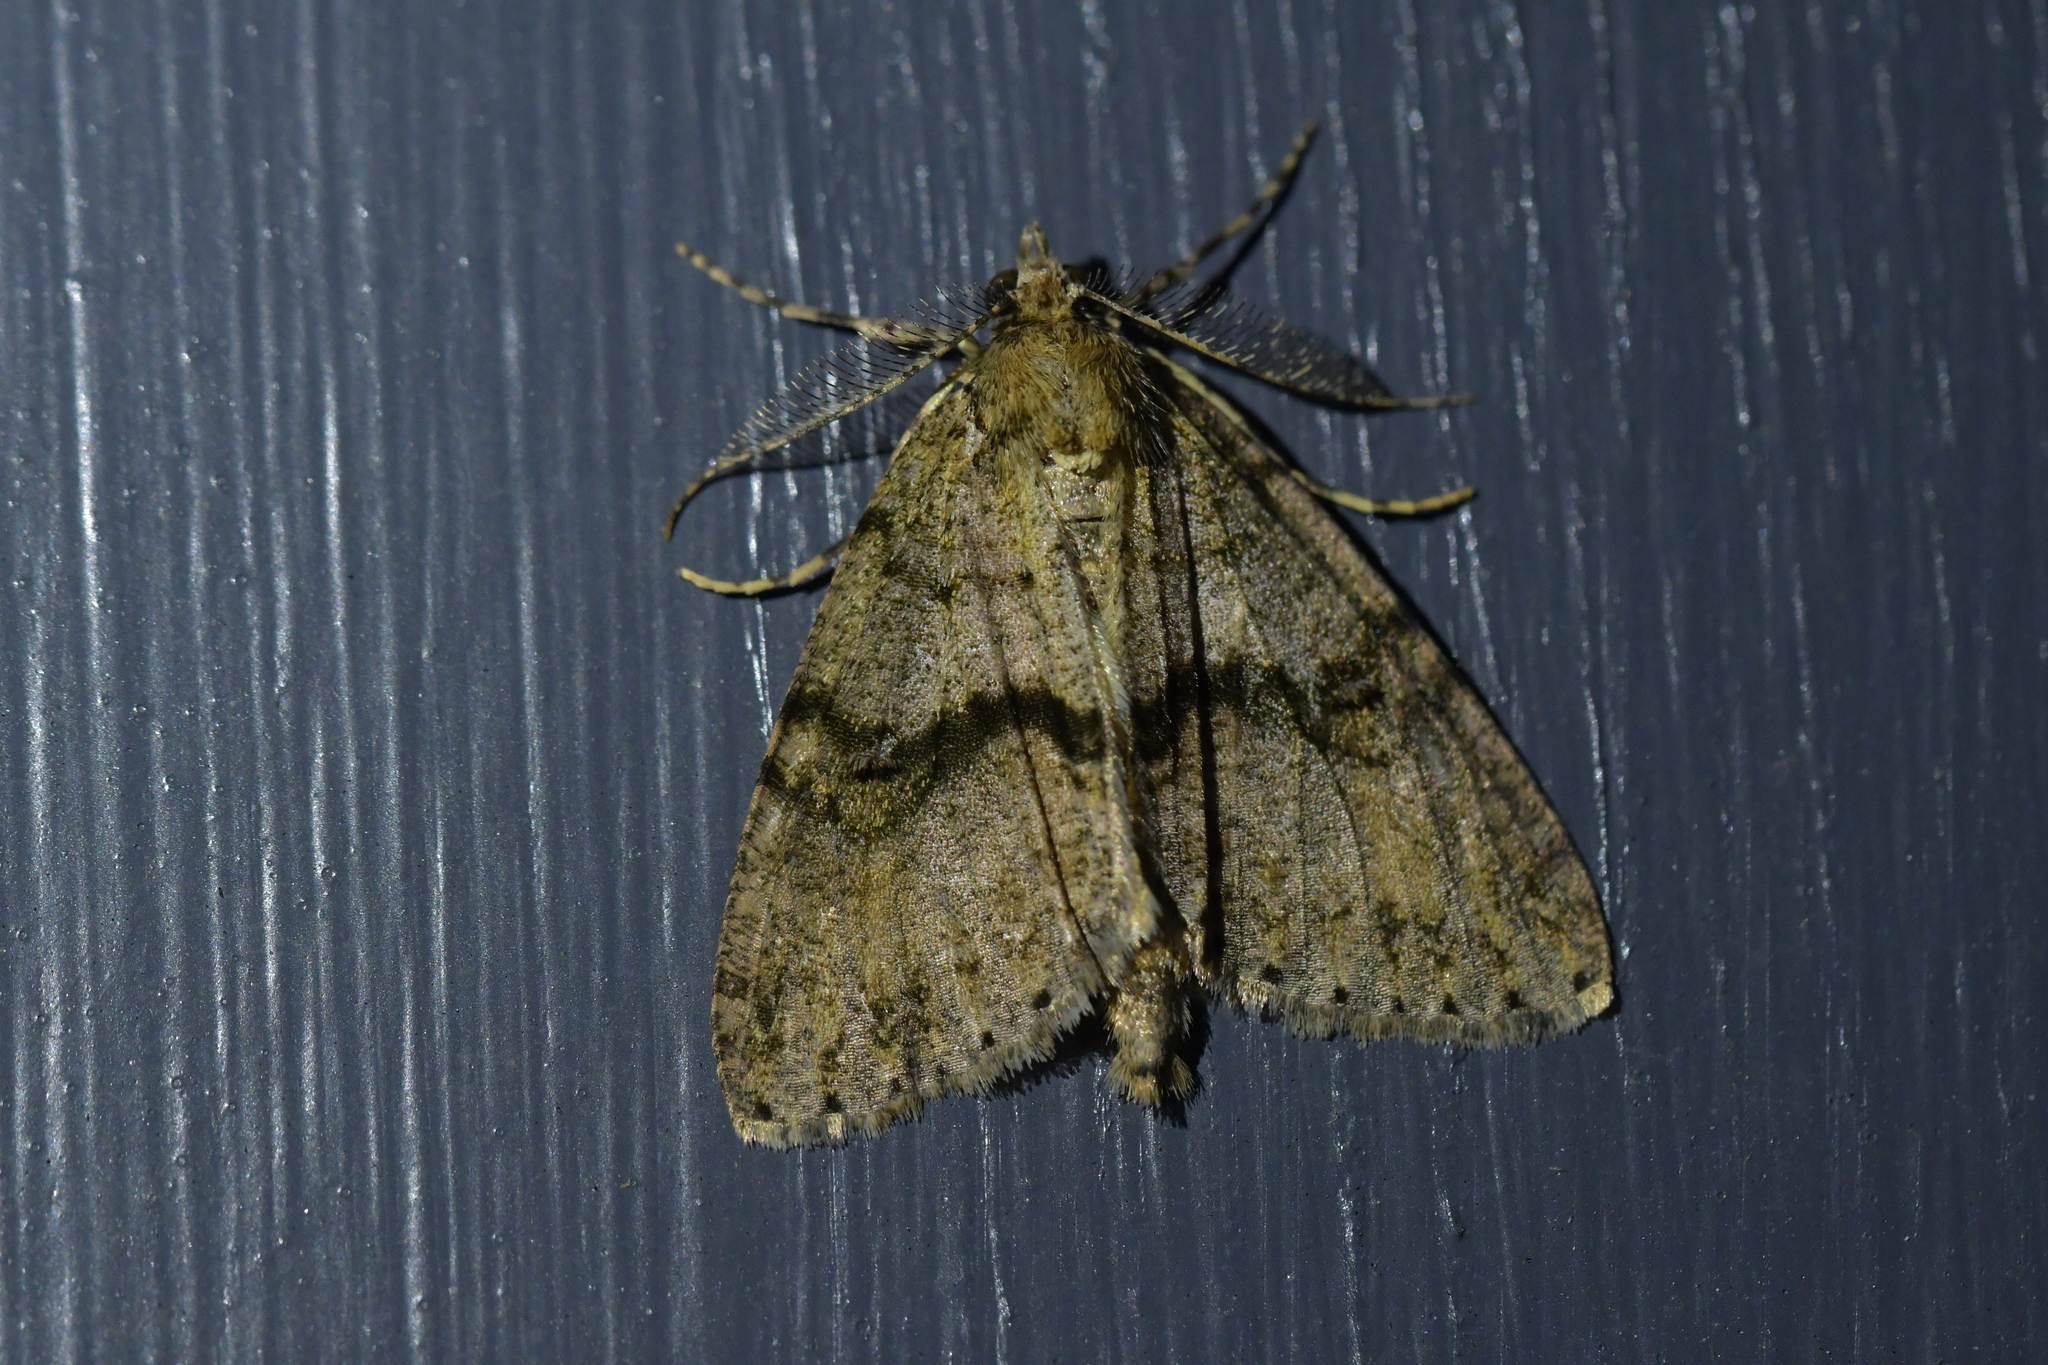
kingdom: Animalia
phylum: Arthropoda
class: Insecta
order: Lepidoptera
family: Geometridae
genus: Pseudocoremia
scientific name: Pseudocoremia suavis
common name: Common forest looper
